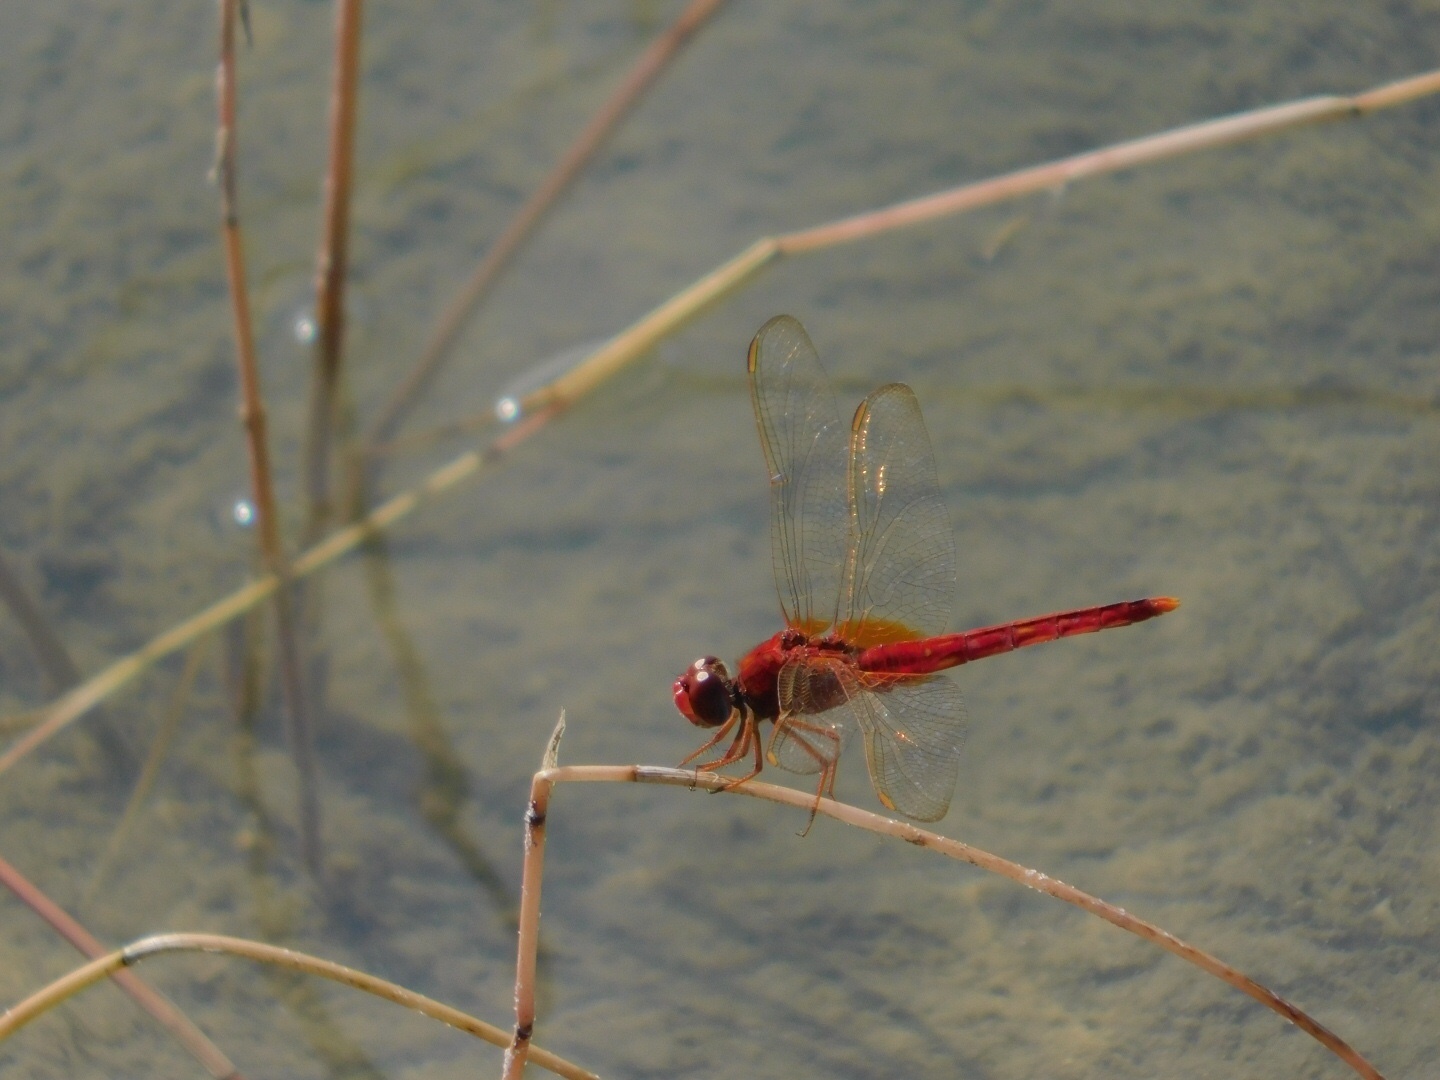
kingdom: Animalia
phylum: Arthropoda
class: Insecta
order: Odonata
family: Libellulidae
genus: Crocothemis
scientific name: Crocothemis servilia
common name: Scarlet skimmer
